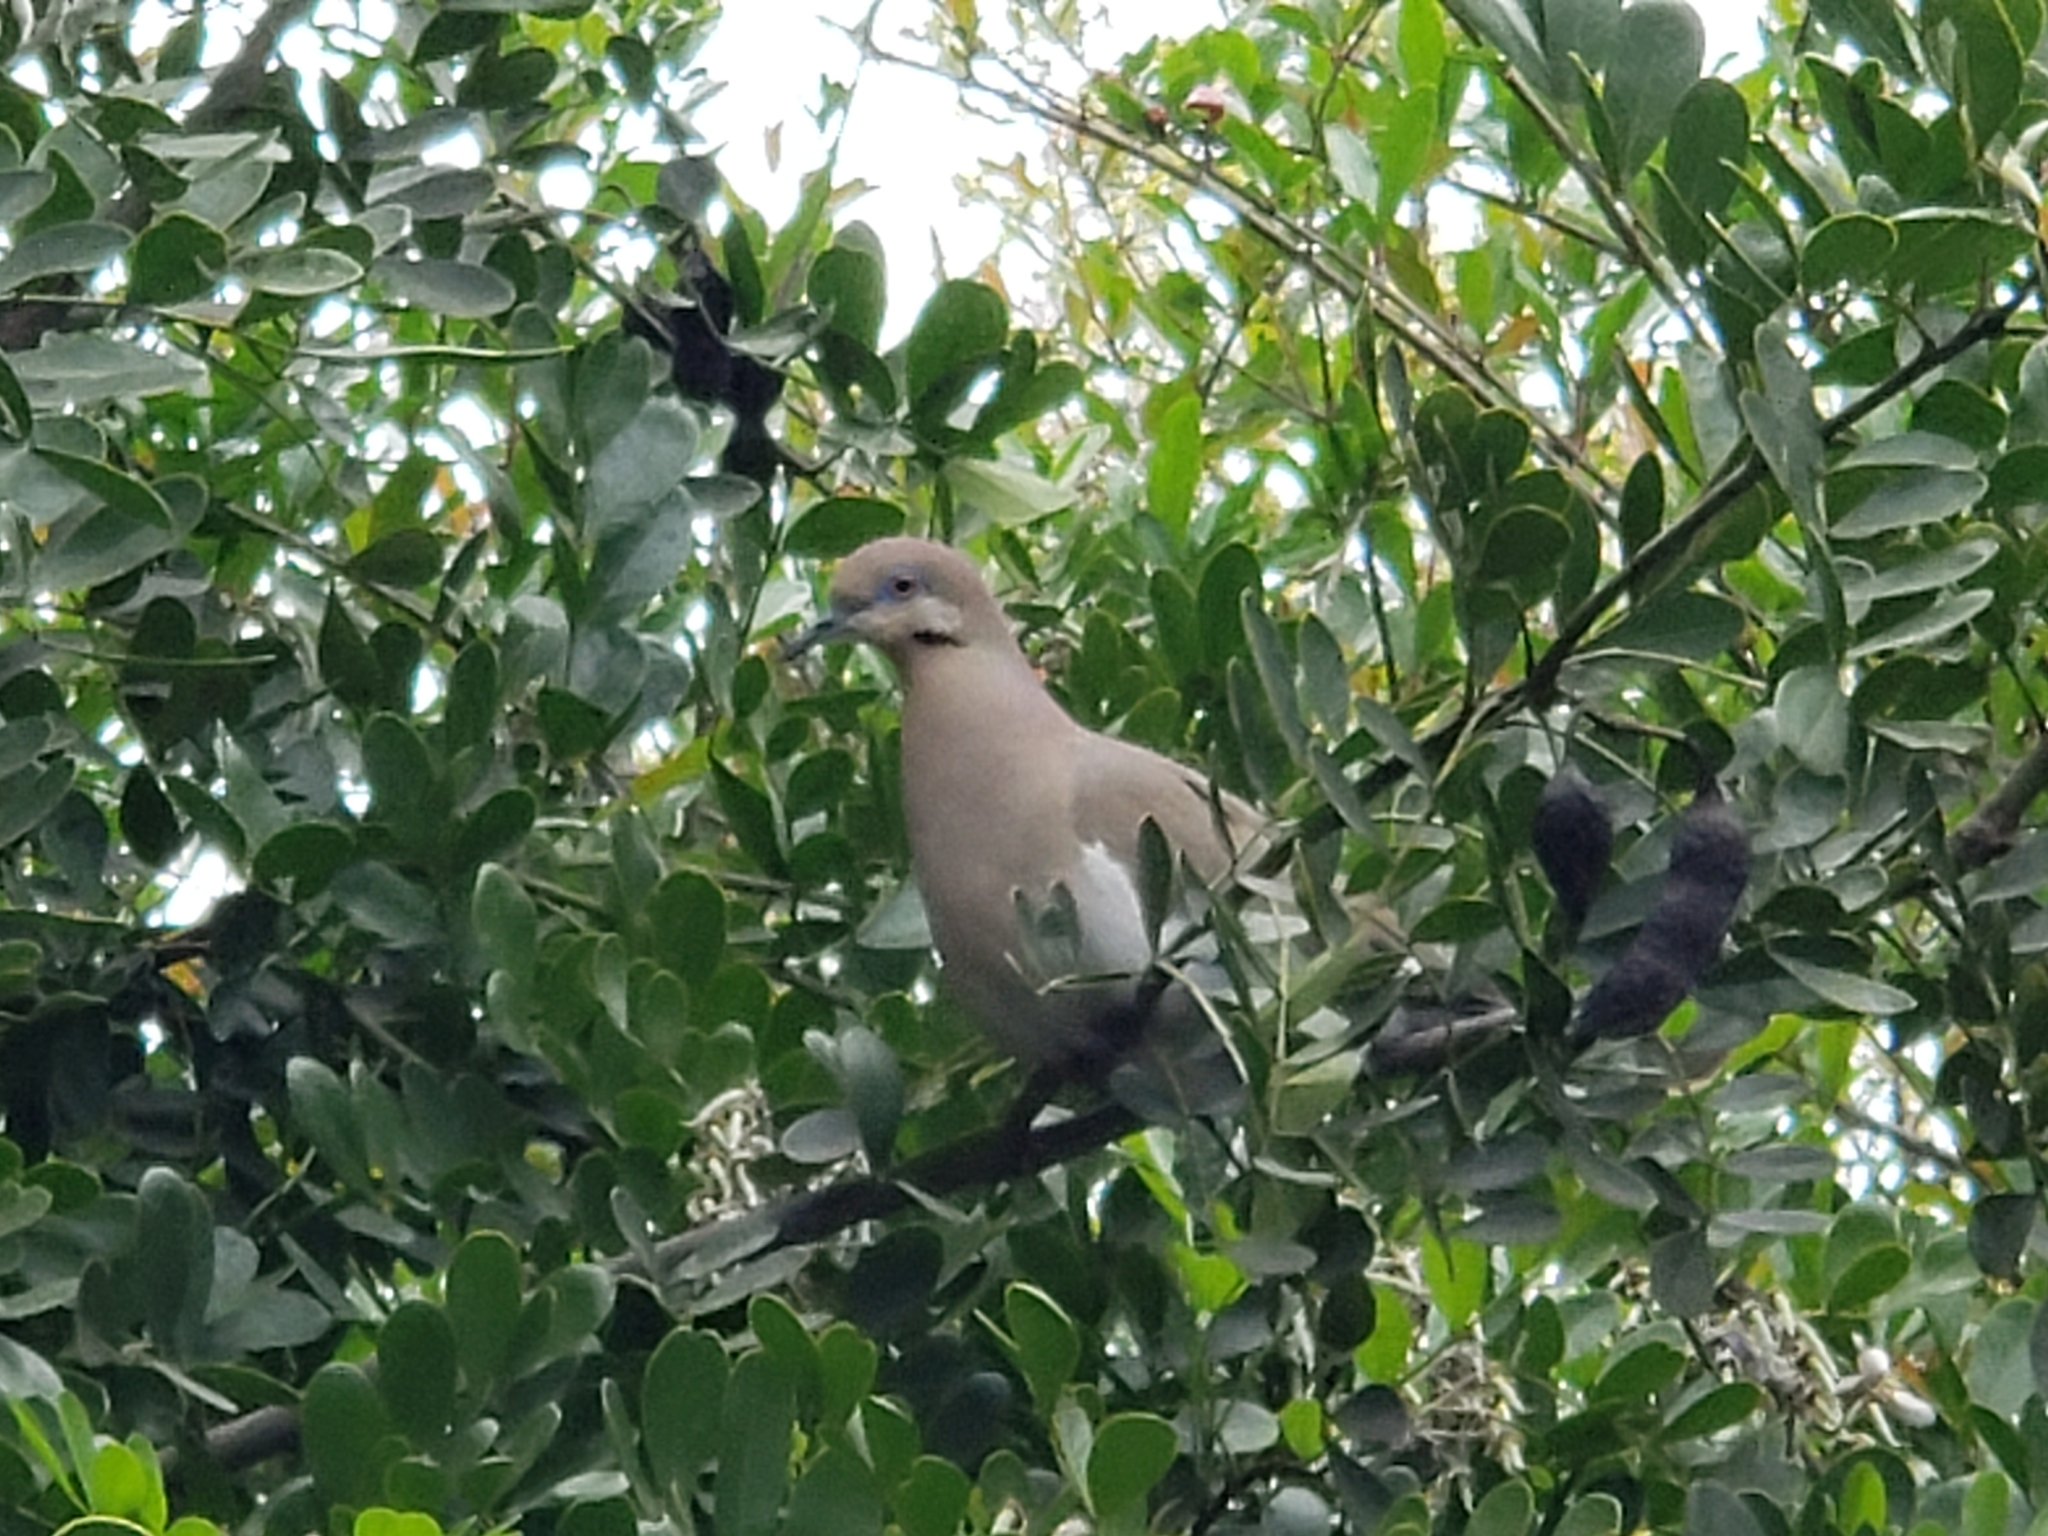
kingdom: Animalia
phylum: Chordata
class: Aves
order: Columbiformes
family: Columbidae
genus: Zenaida
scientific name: Zenaida asiatica
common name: White-winged dove
